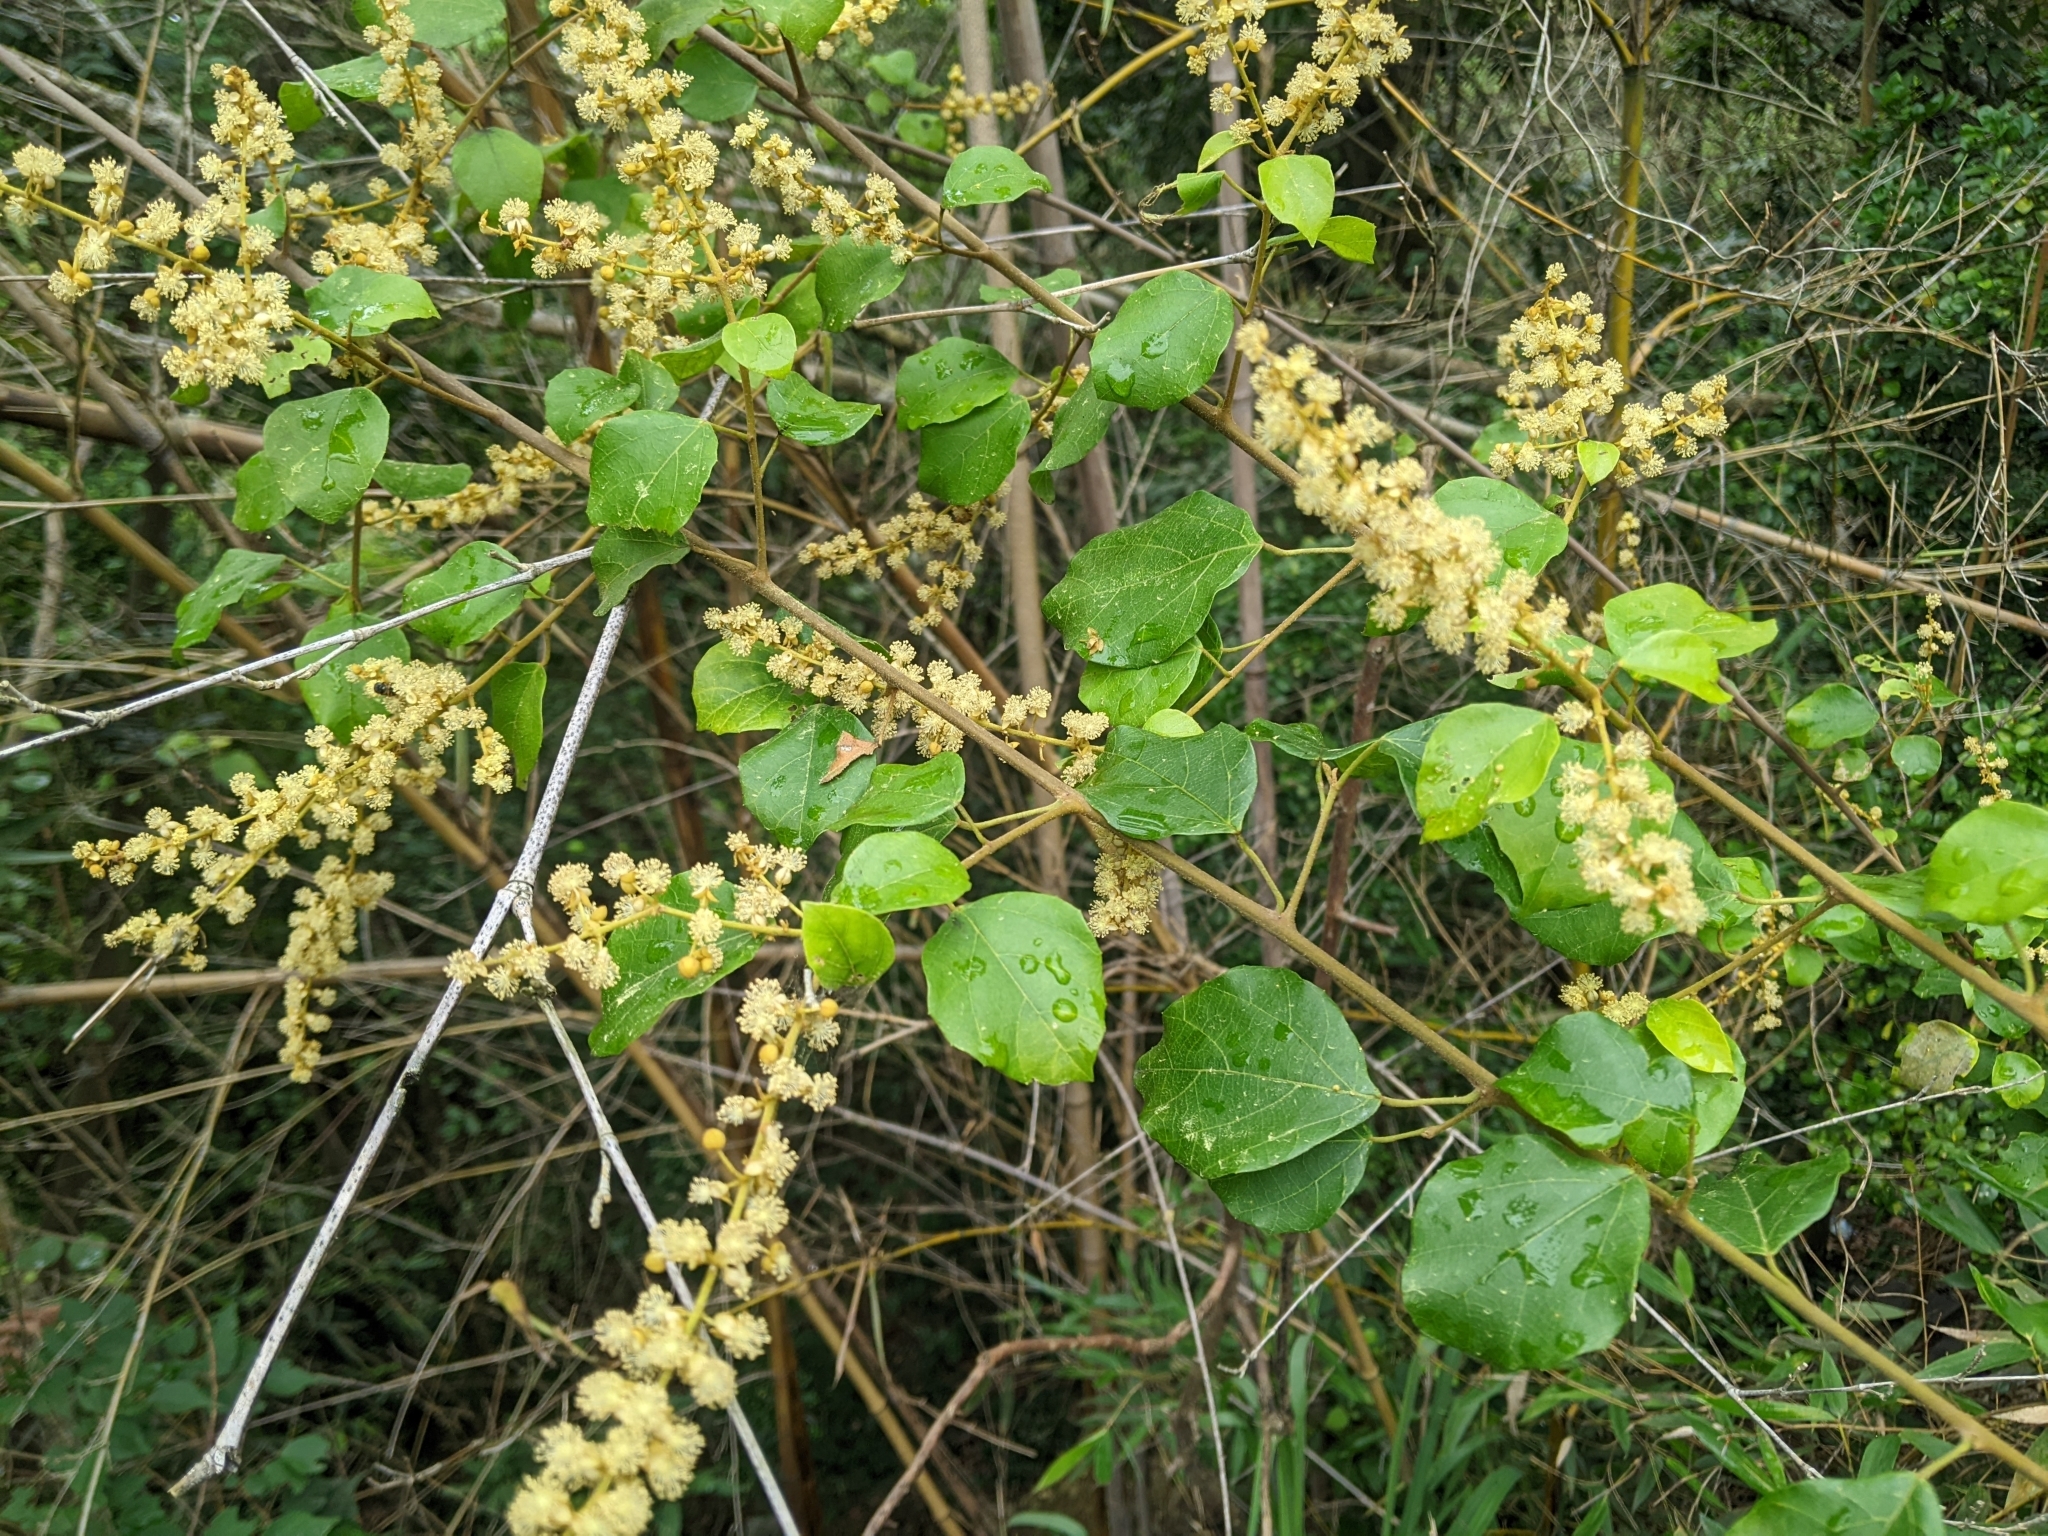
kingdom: Plantae
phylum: Tracheophyta
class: Magnoliopsida
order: Malpighiales
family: Euphorbiaceae
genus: Mallotus
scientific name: Mallotus repandus
